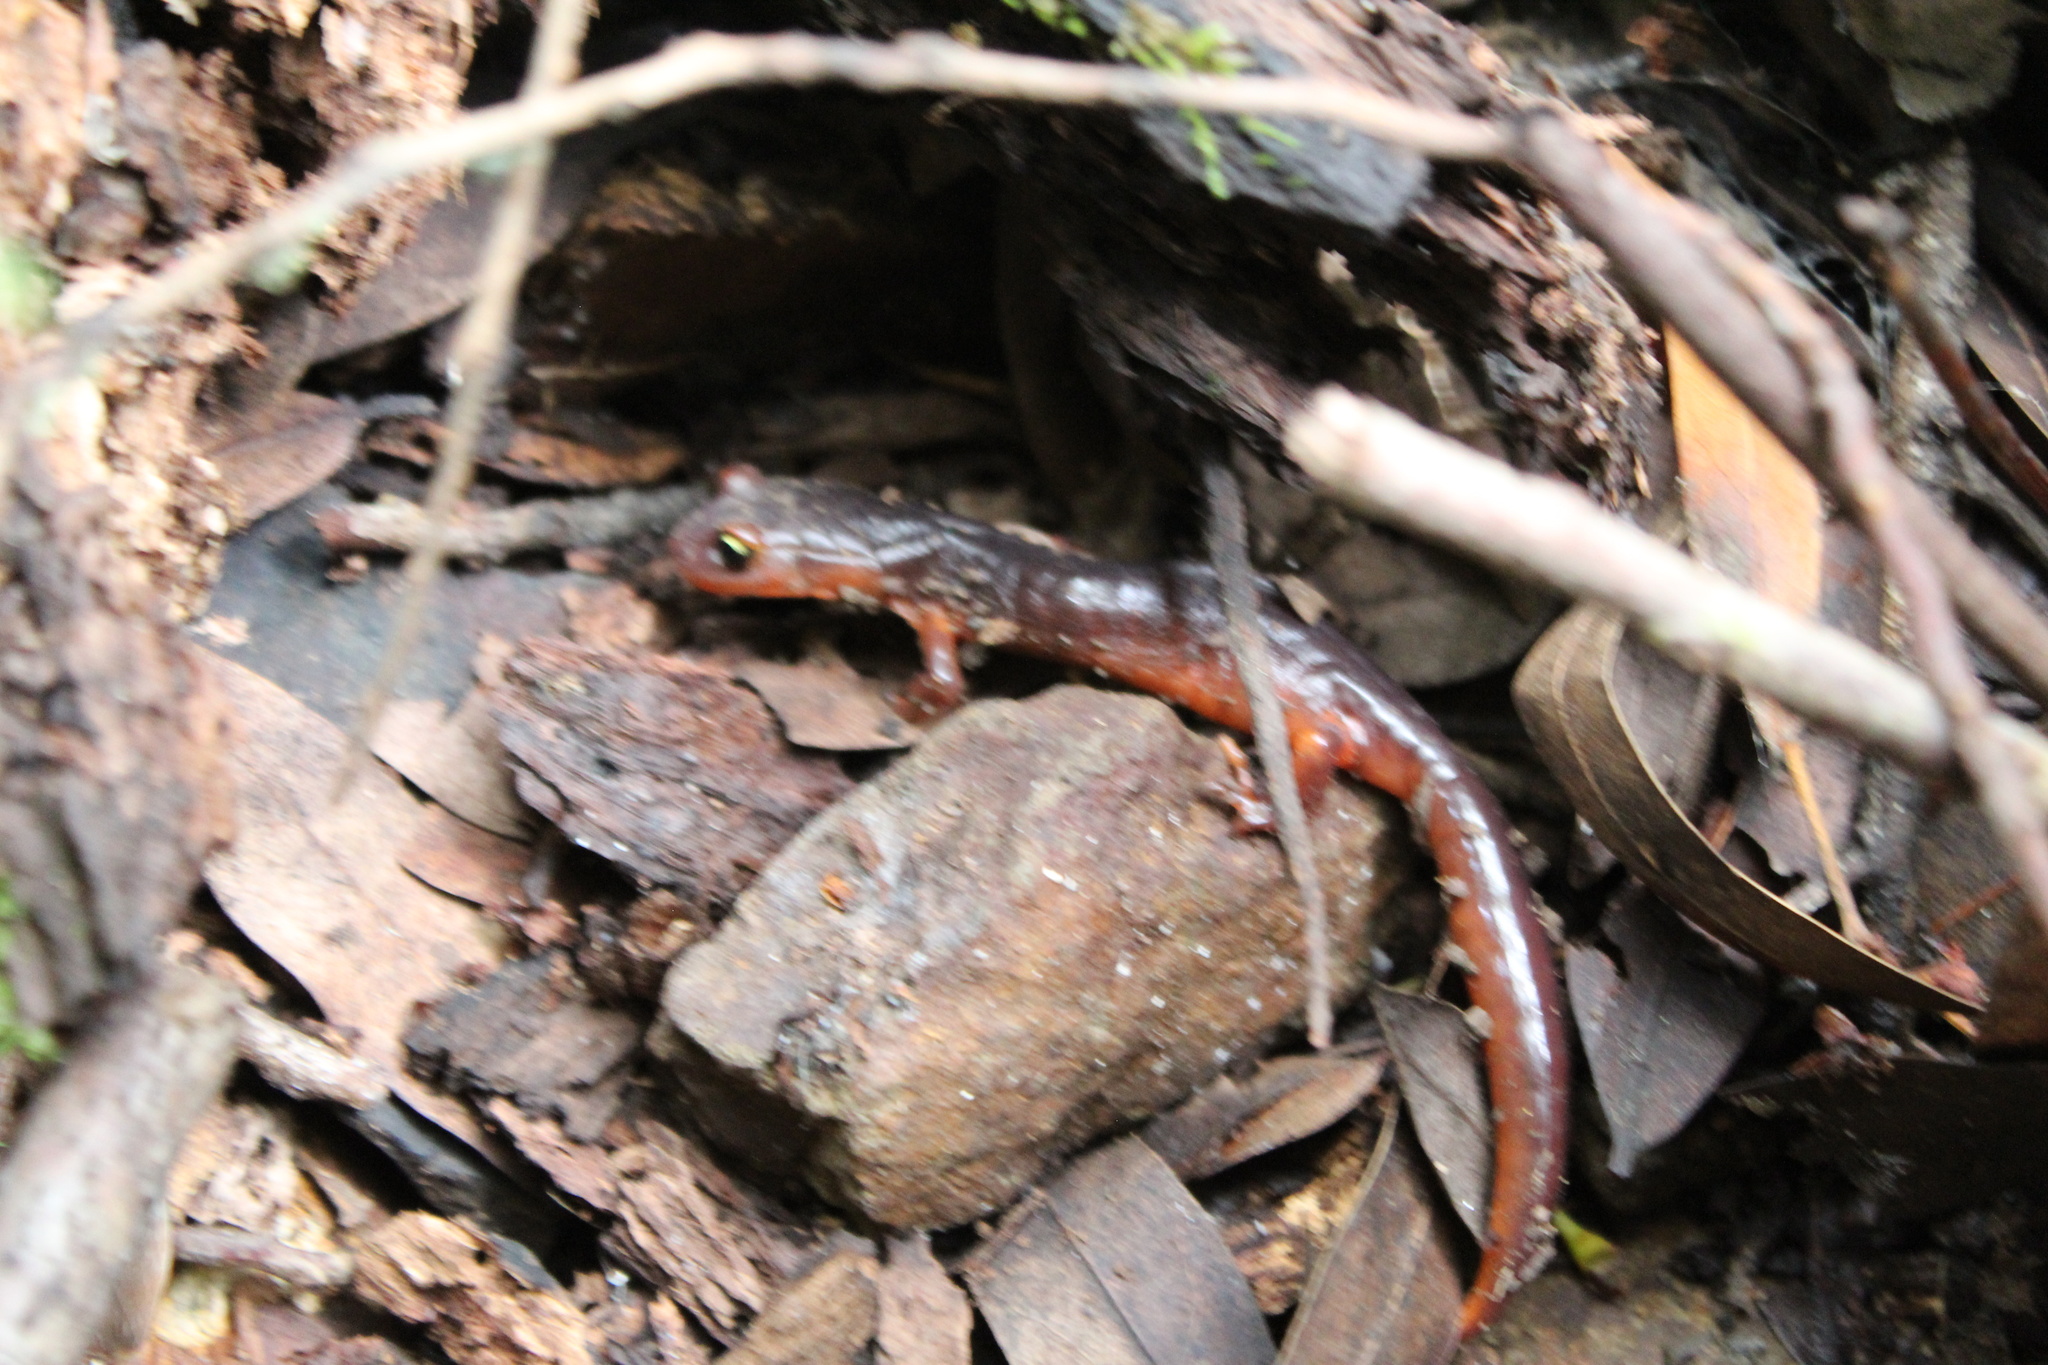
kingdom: Animalia
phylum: Chordata
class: Amphibia
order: Caudata
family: Plethodontidae
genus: Ensatina
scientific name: Ensatina eschscholtzii
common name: Ensatina
